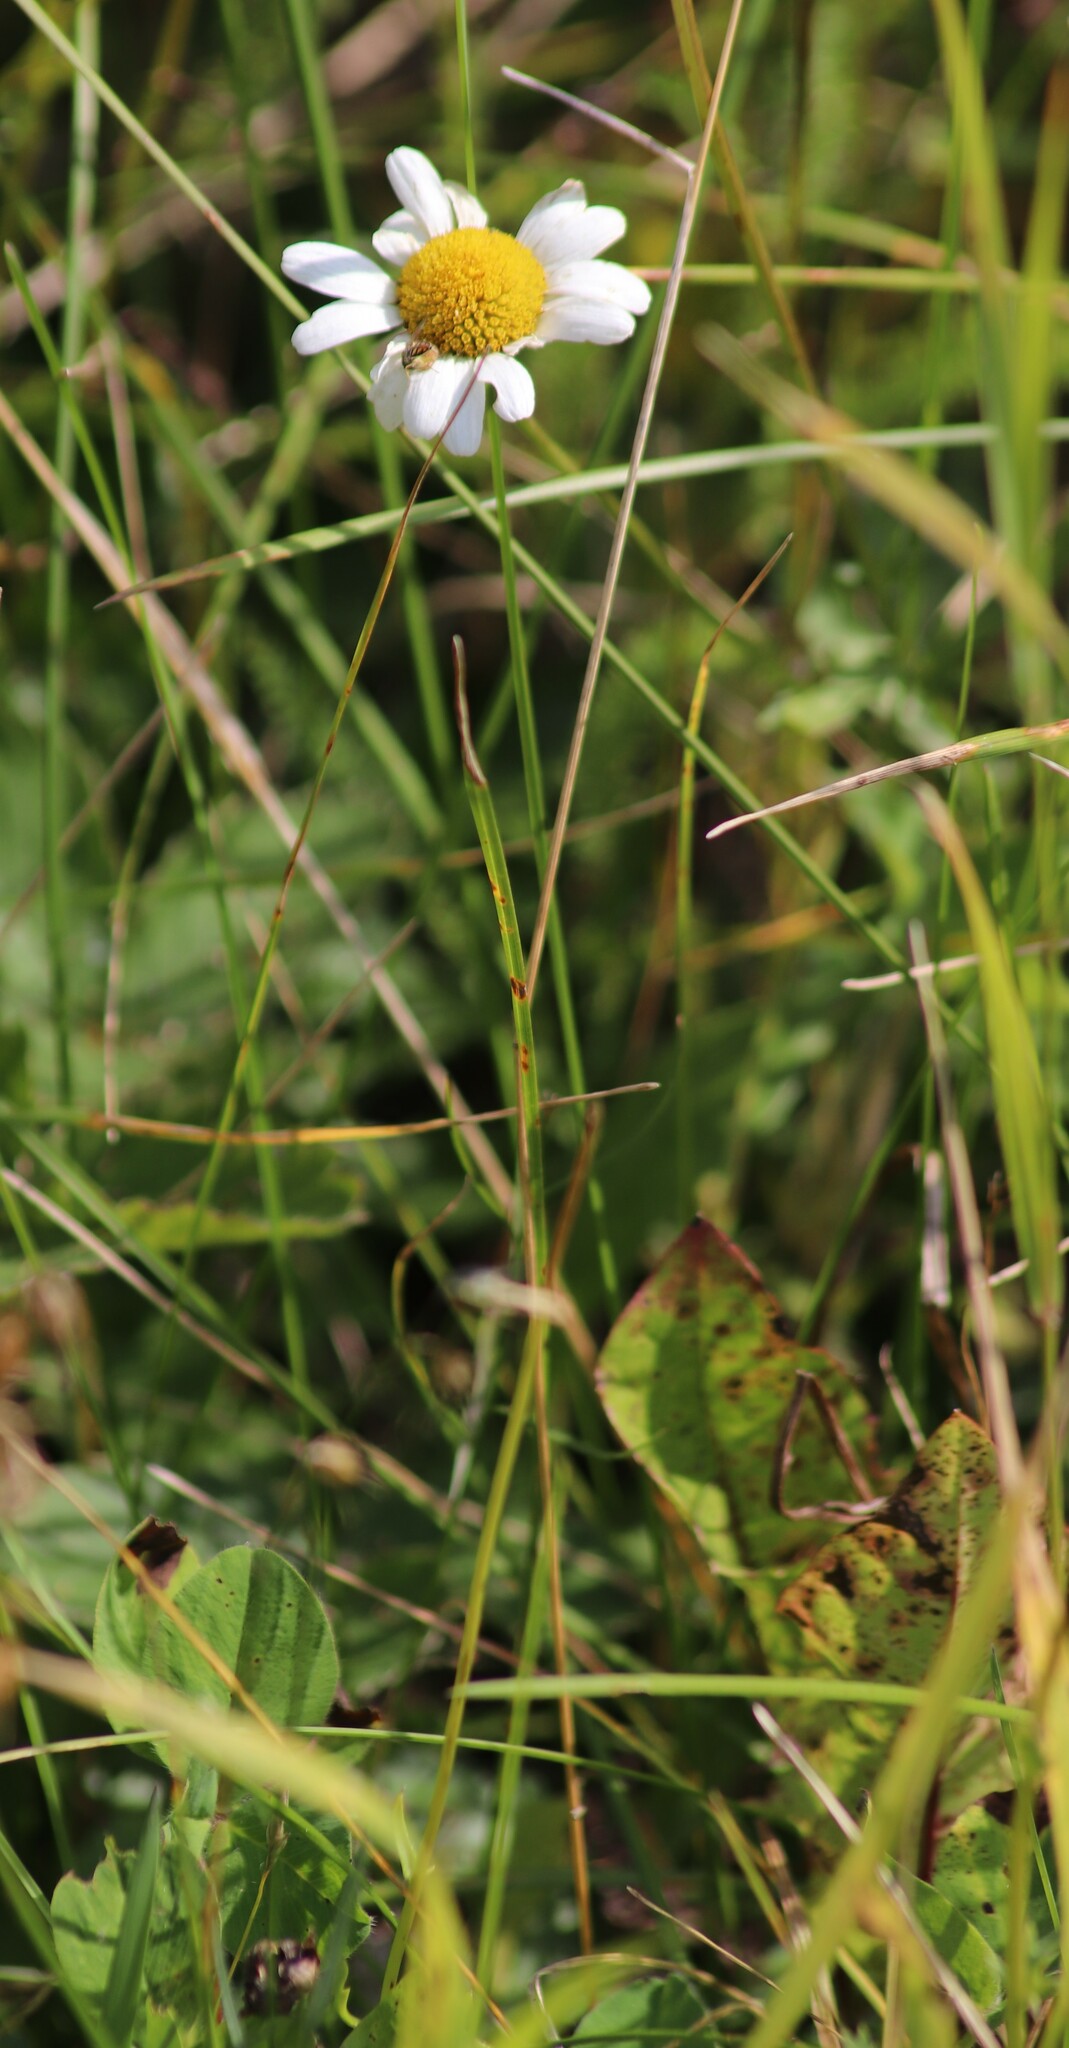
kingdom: Plantae
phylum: Tracheophyta
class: Magnoliopsida
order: Asterales
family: Asteraceae
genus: Leucanthemum
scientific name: Leucanthemum vulgare
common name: Oxeye daisy
